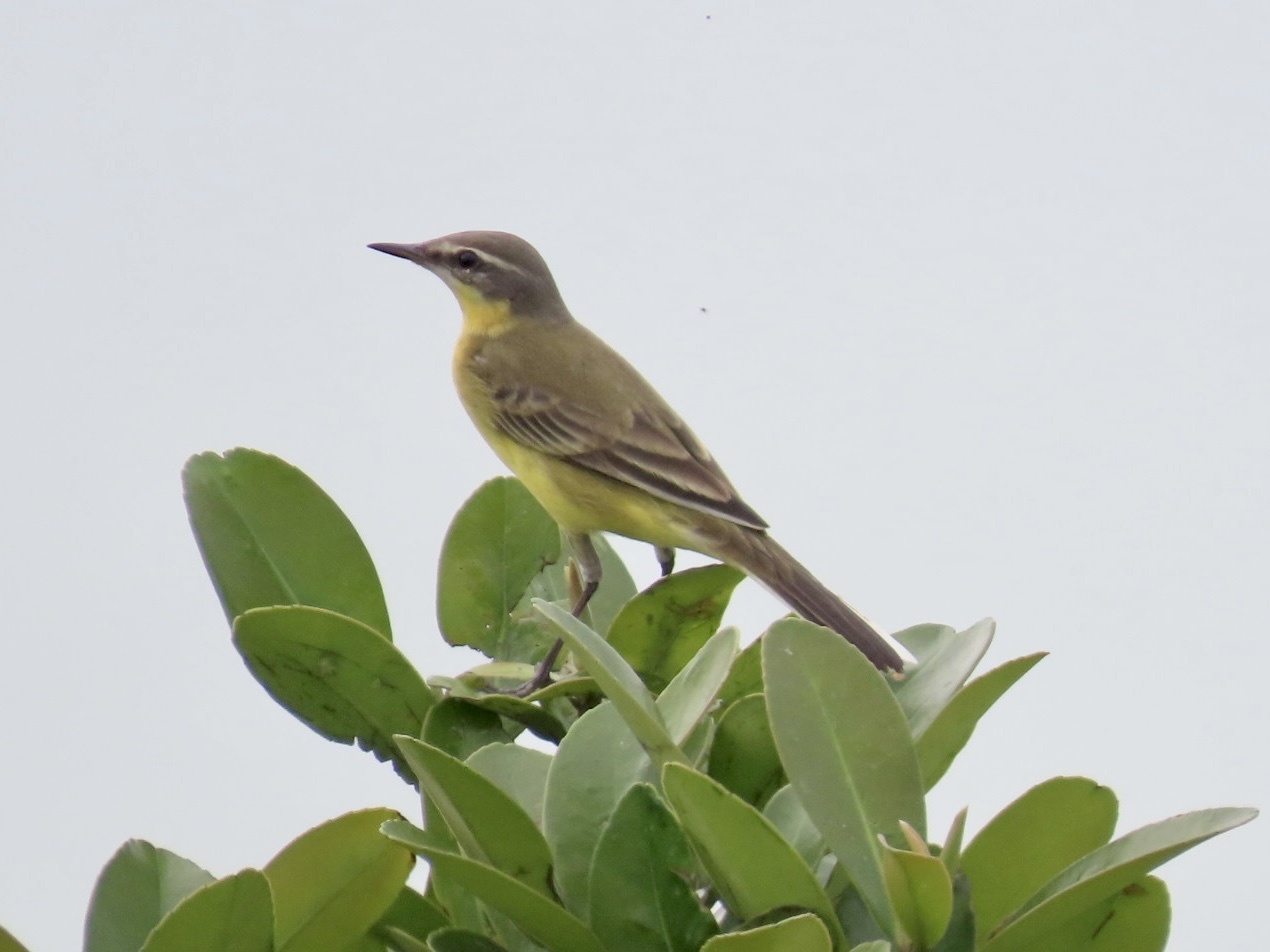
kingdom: Animalia
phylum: Chordata
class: Aves
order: Passeriformes
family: Motacillidae
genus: Motacilla
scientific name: Motacilla tschutschensis
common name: Eastern yellow wagtail
